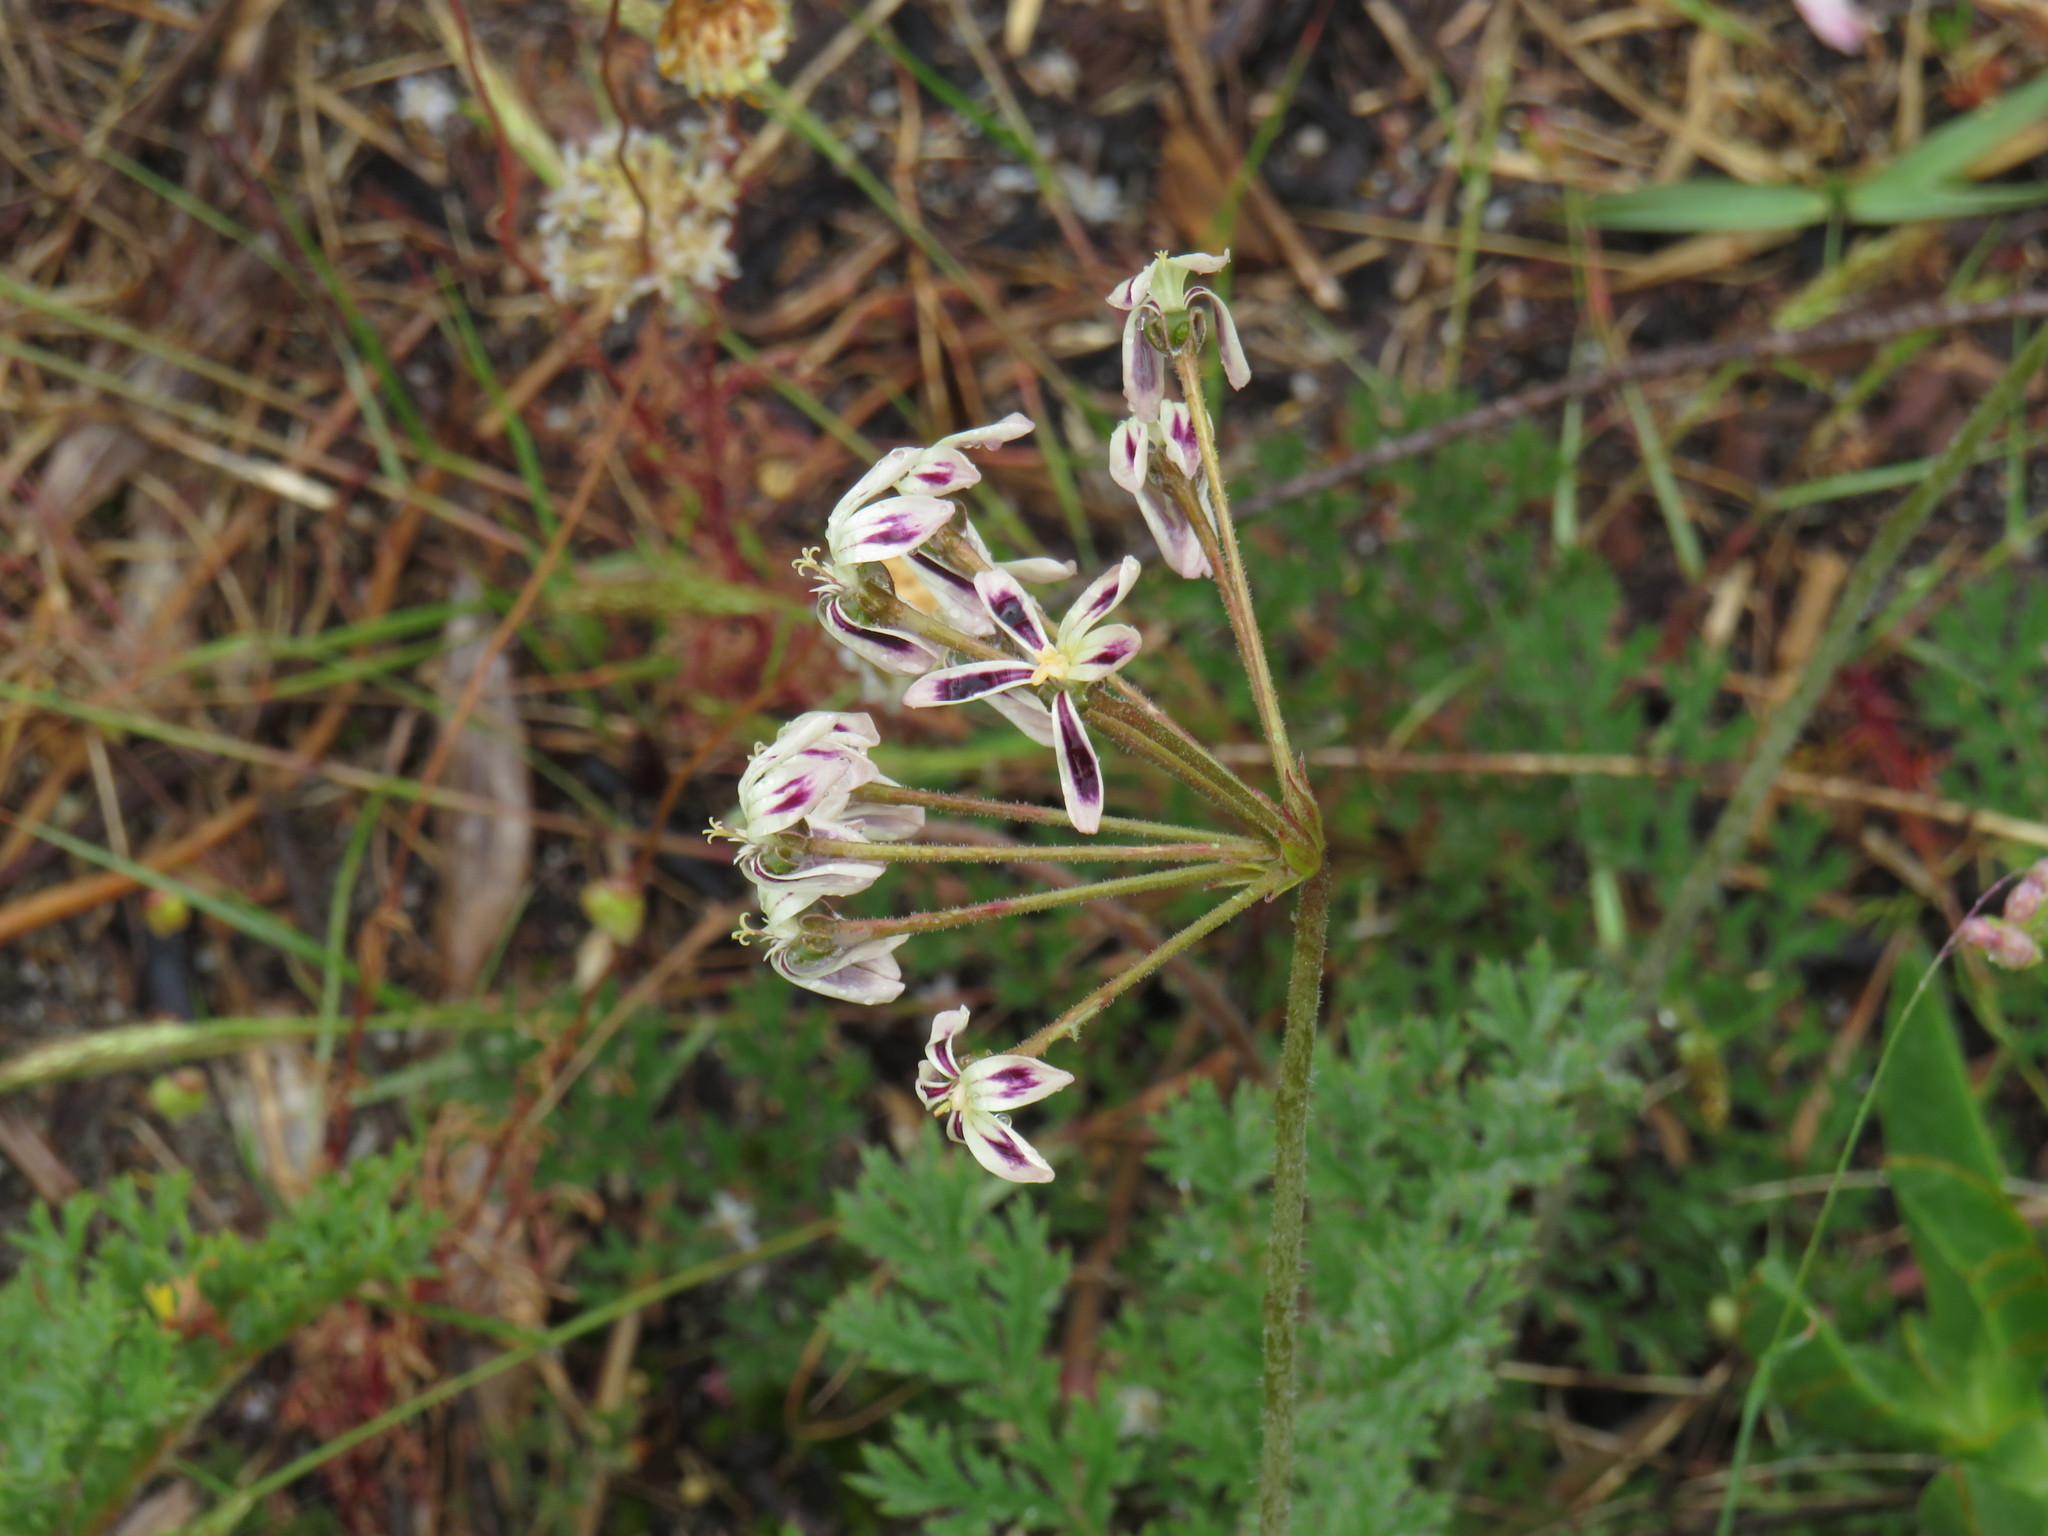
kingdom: Plantae
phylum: Tracheophyta
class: Magnoliopsida
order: Geraniales
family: Geraniaceae
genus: Pelargonium
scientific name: Pelargonium triste
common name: Night-scent pelargonium
